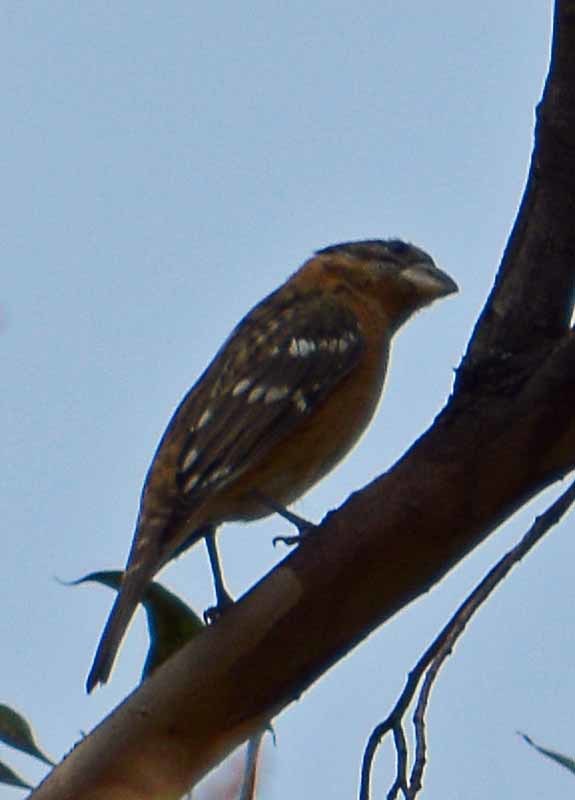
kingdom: Animalia
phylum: Chordata
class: Aves
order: Passeriformes
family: Cardinalidae
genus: Pheucticus
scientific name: Pheucticus melanocephalus
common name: Black-headed grosbeak
